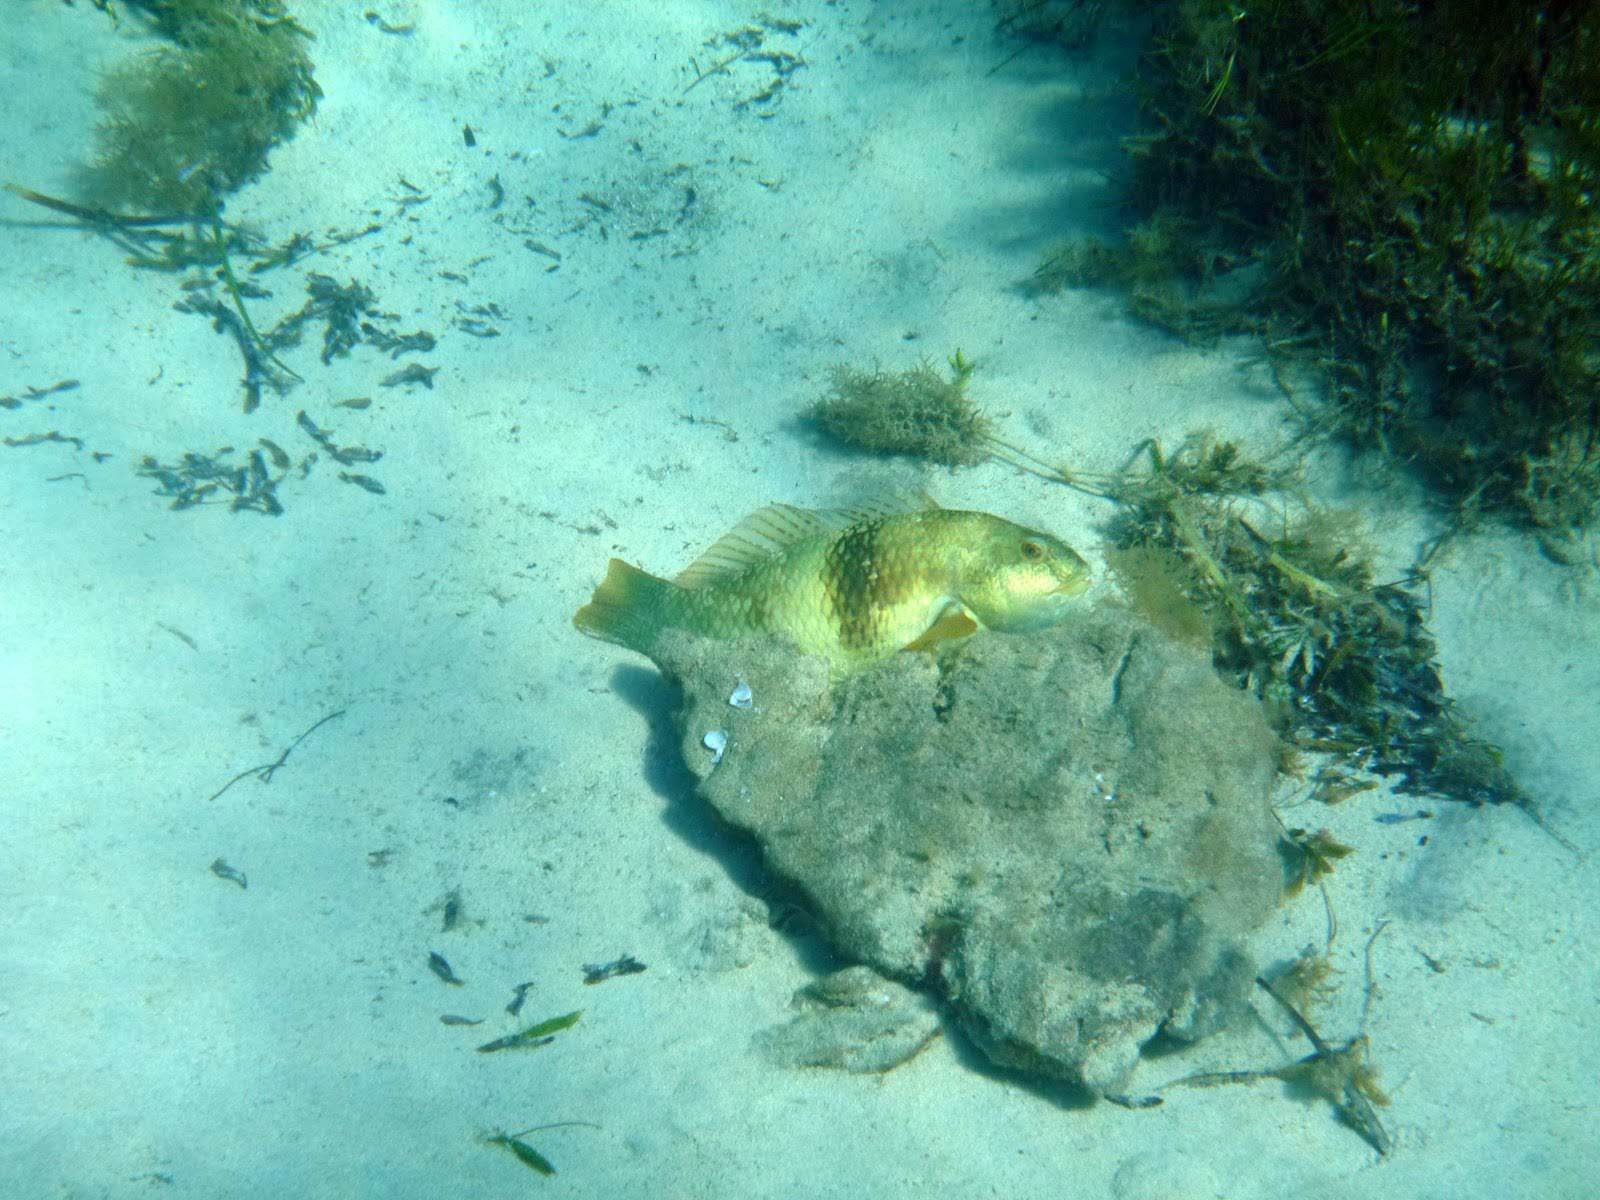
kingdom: Animalia
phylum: Chordata
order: Perciformes
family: Labridae
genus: Notolabrus
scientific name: Notolabrus tetricus
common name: Blue-throated parrotfish
